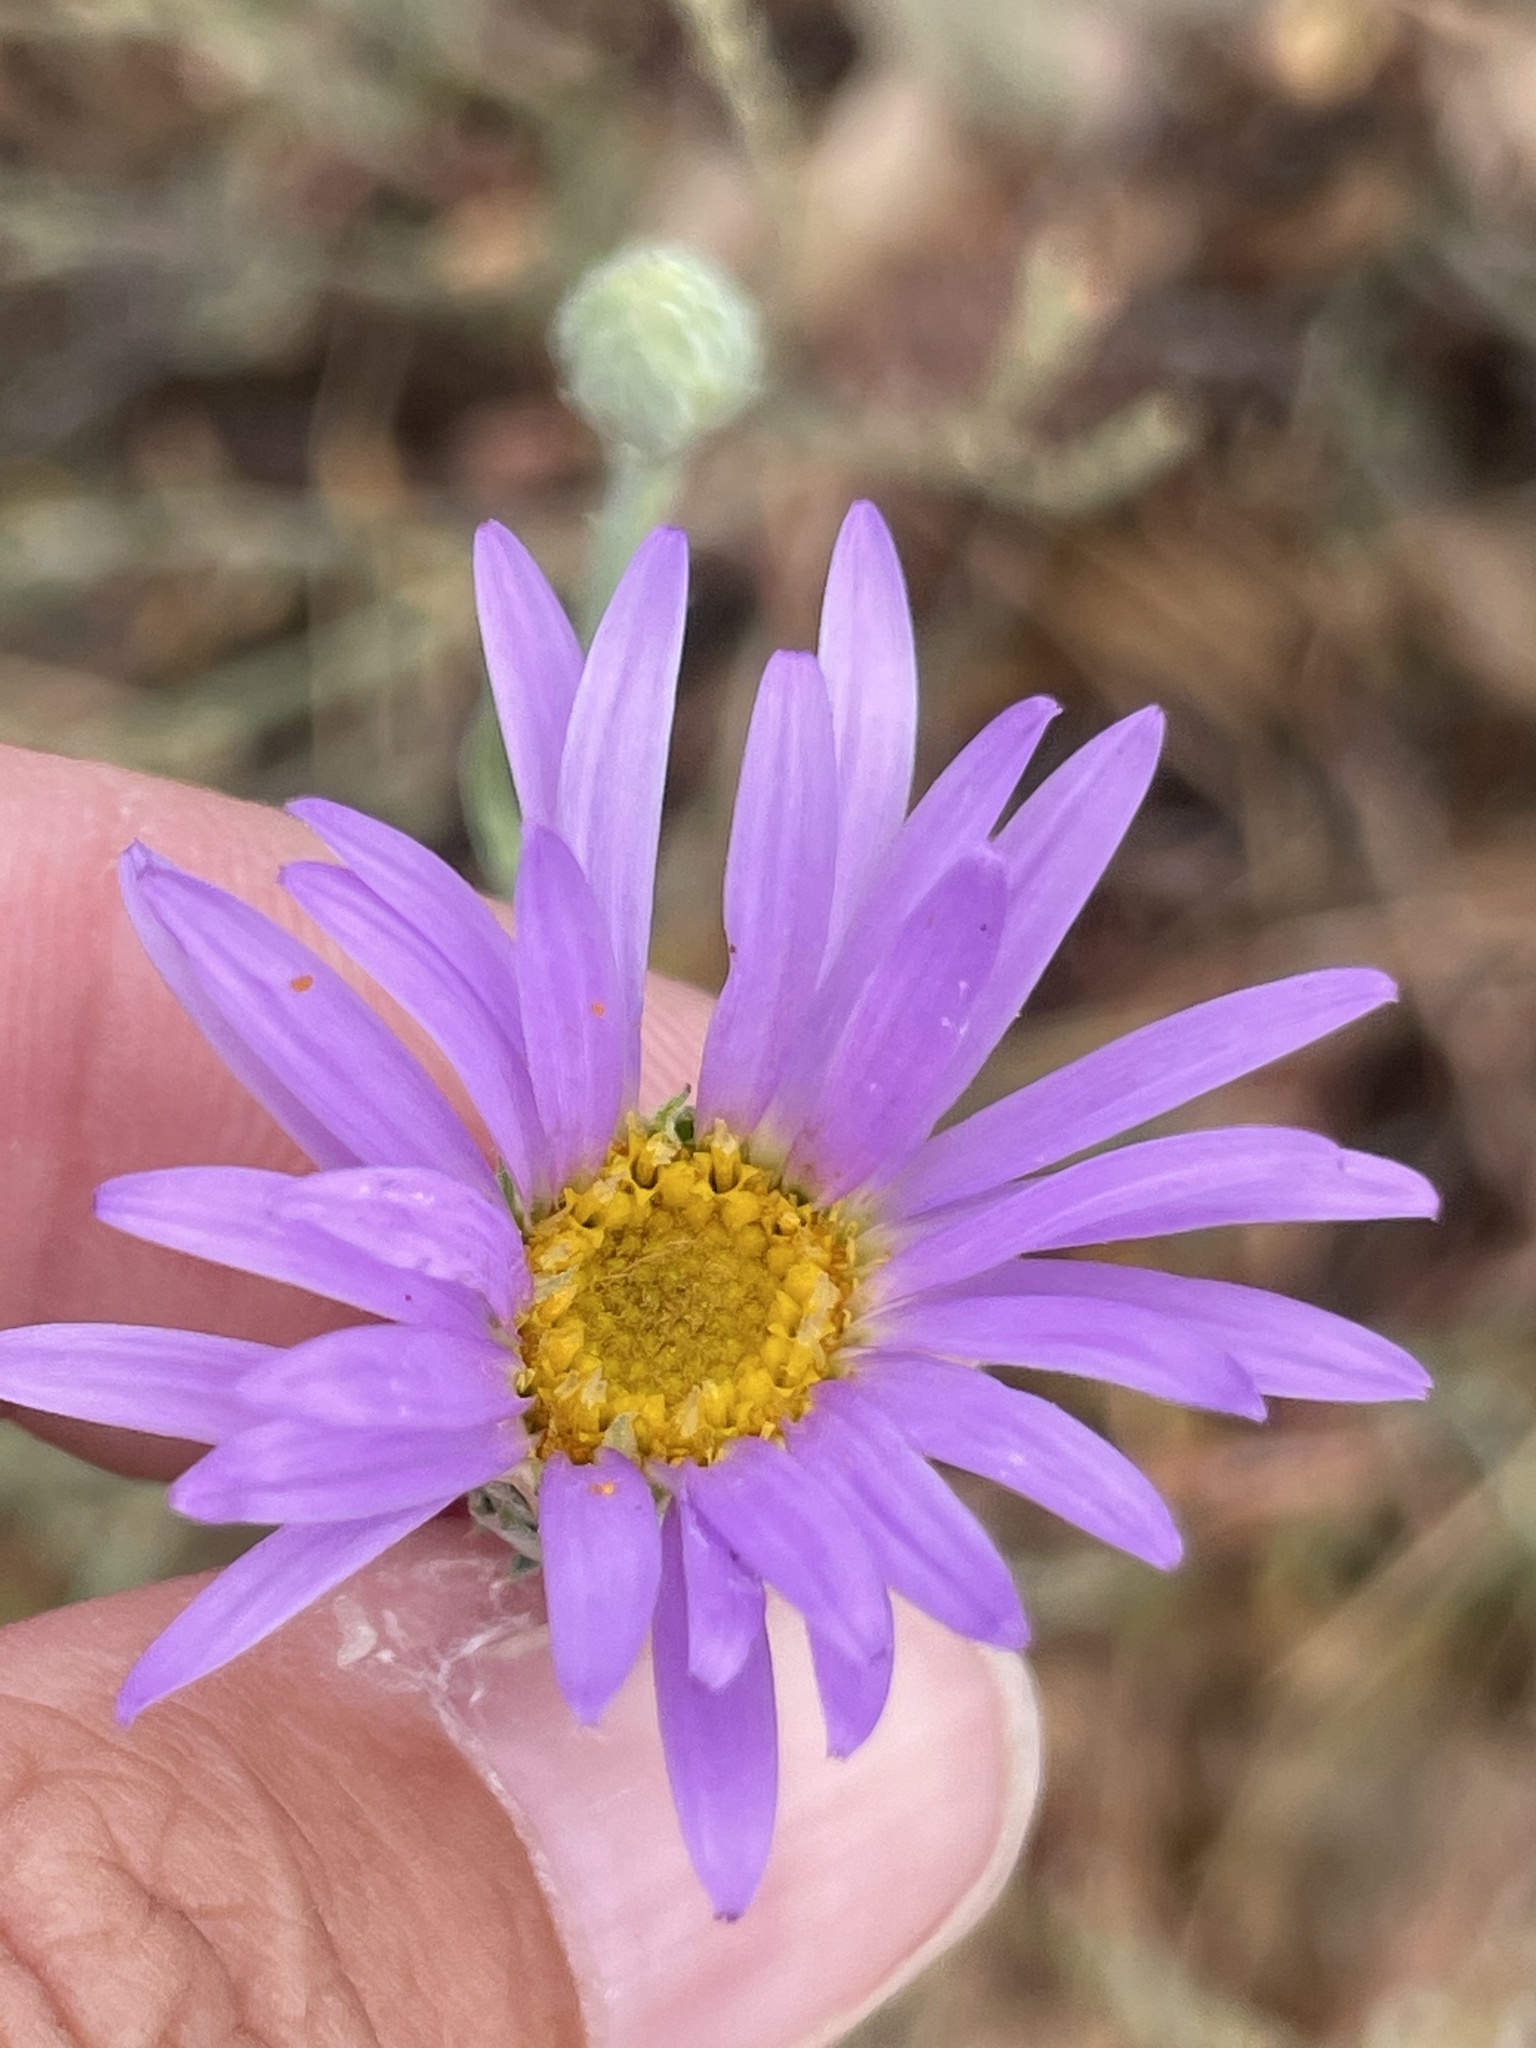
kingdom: Plantae
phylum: Tracheophyta
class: Magnoliopsida
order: Asterales
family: Asteraceae
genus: Dieteria
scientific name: Dieteria asteroides
